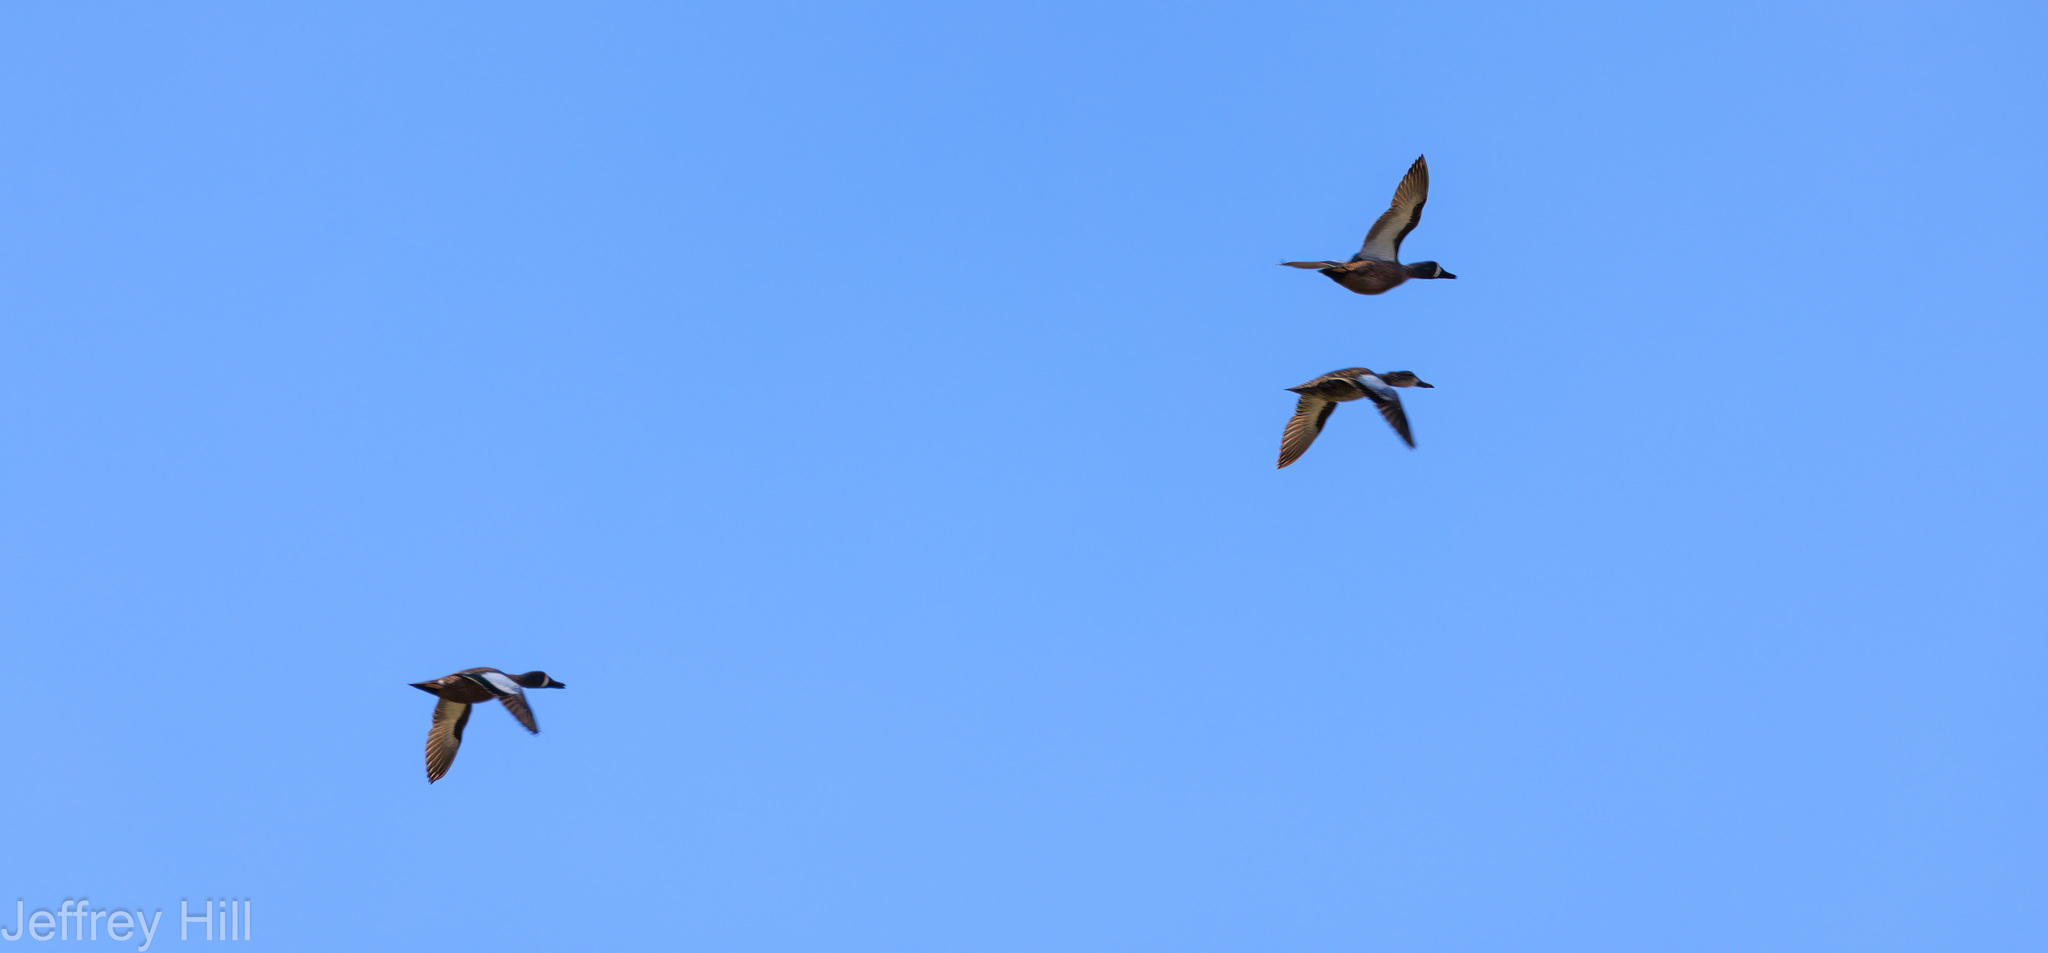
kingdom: Animalia
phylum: Chordata
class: Aves
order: Anseriformes
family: Anatidae
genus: Spatula
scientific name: Spatula discors
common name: Blue-winged teal
